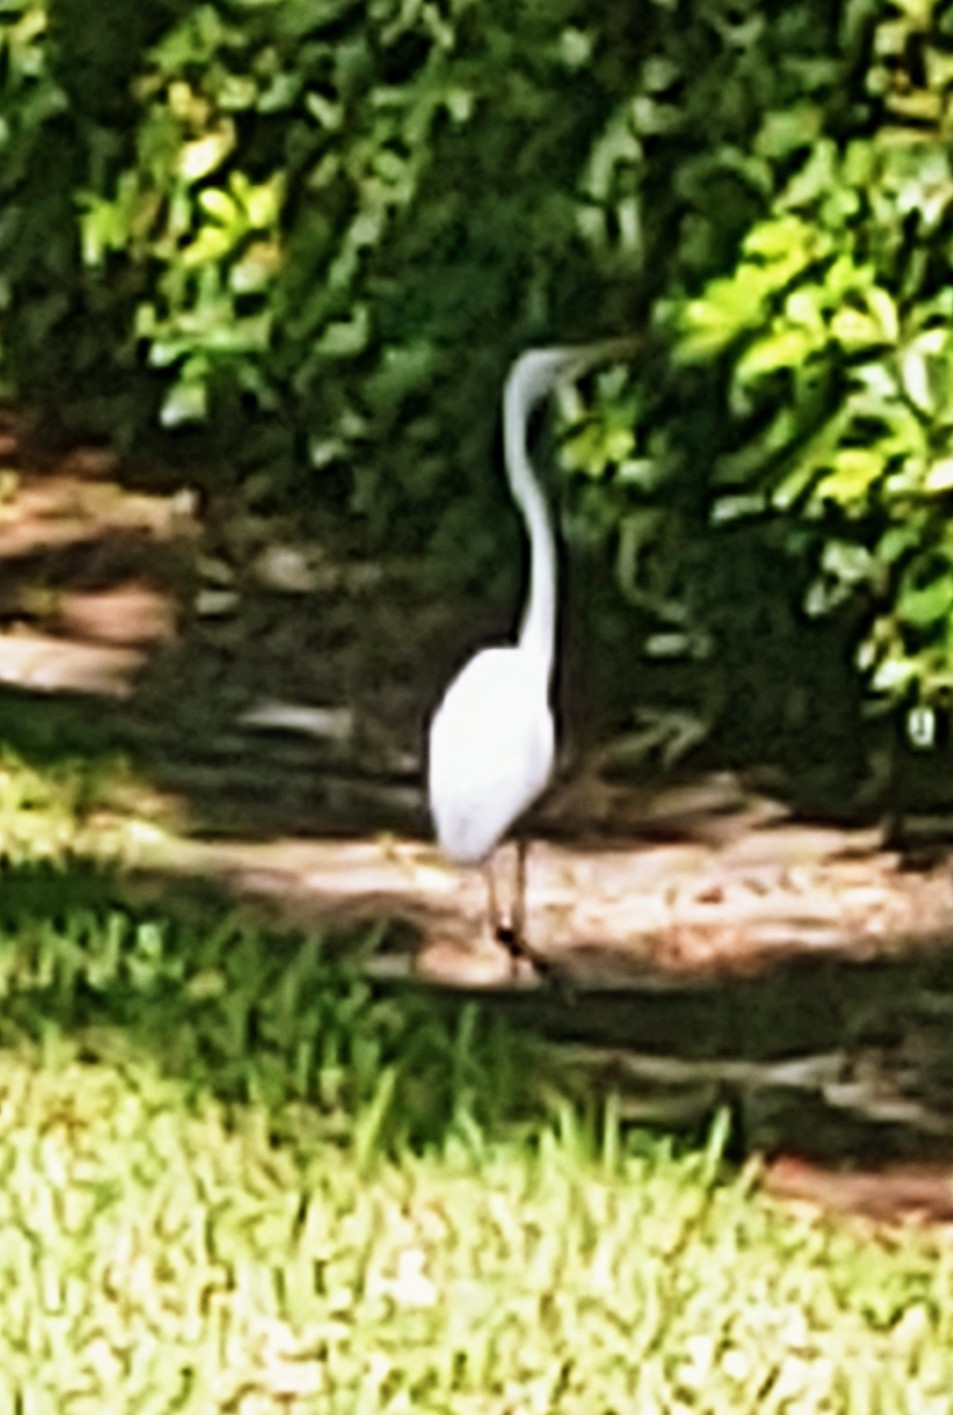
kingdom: Animalia
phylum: Chordata
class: Aves
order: Pelecaniformes
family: Ardeidae
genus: Ardea
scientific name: Ardea alba
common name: Great egret
